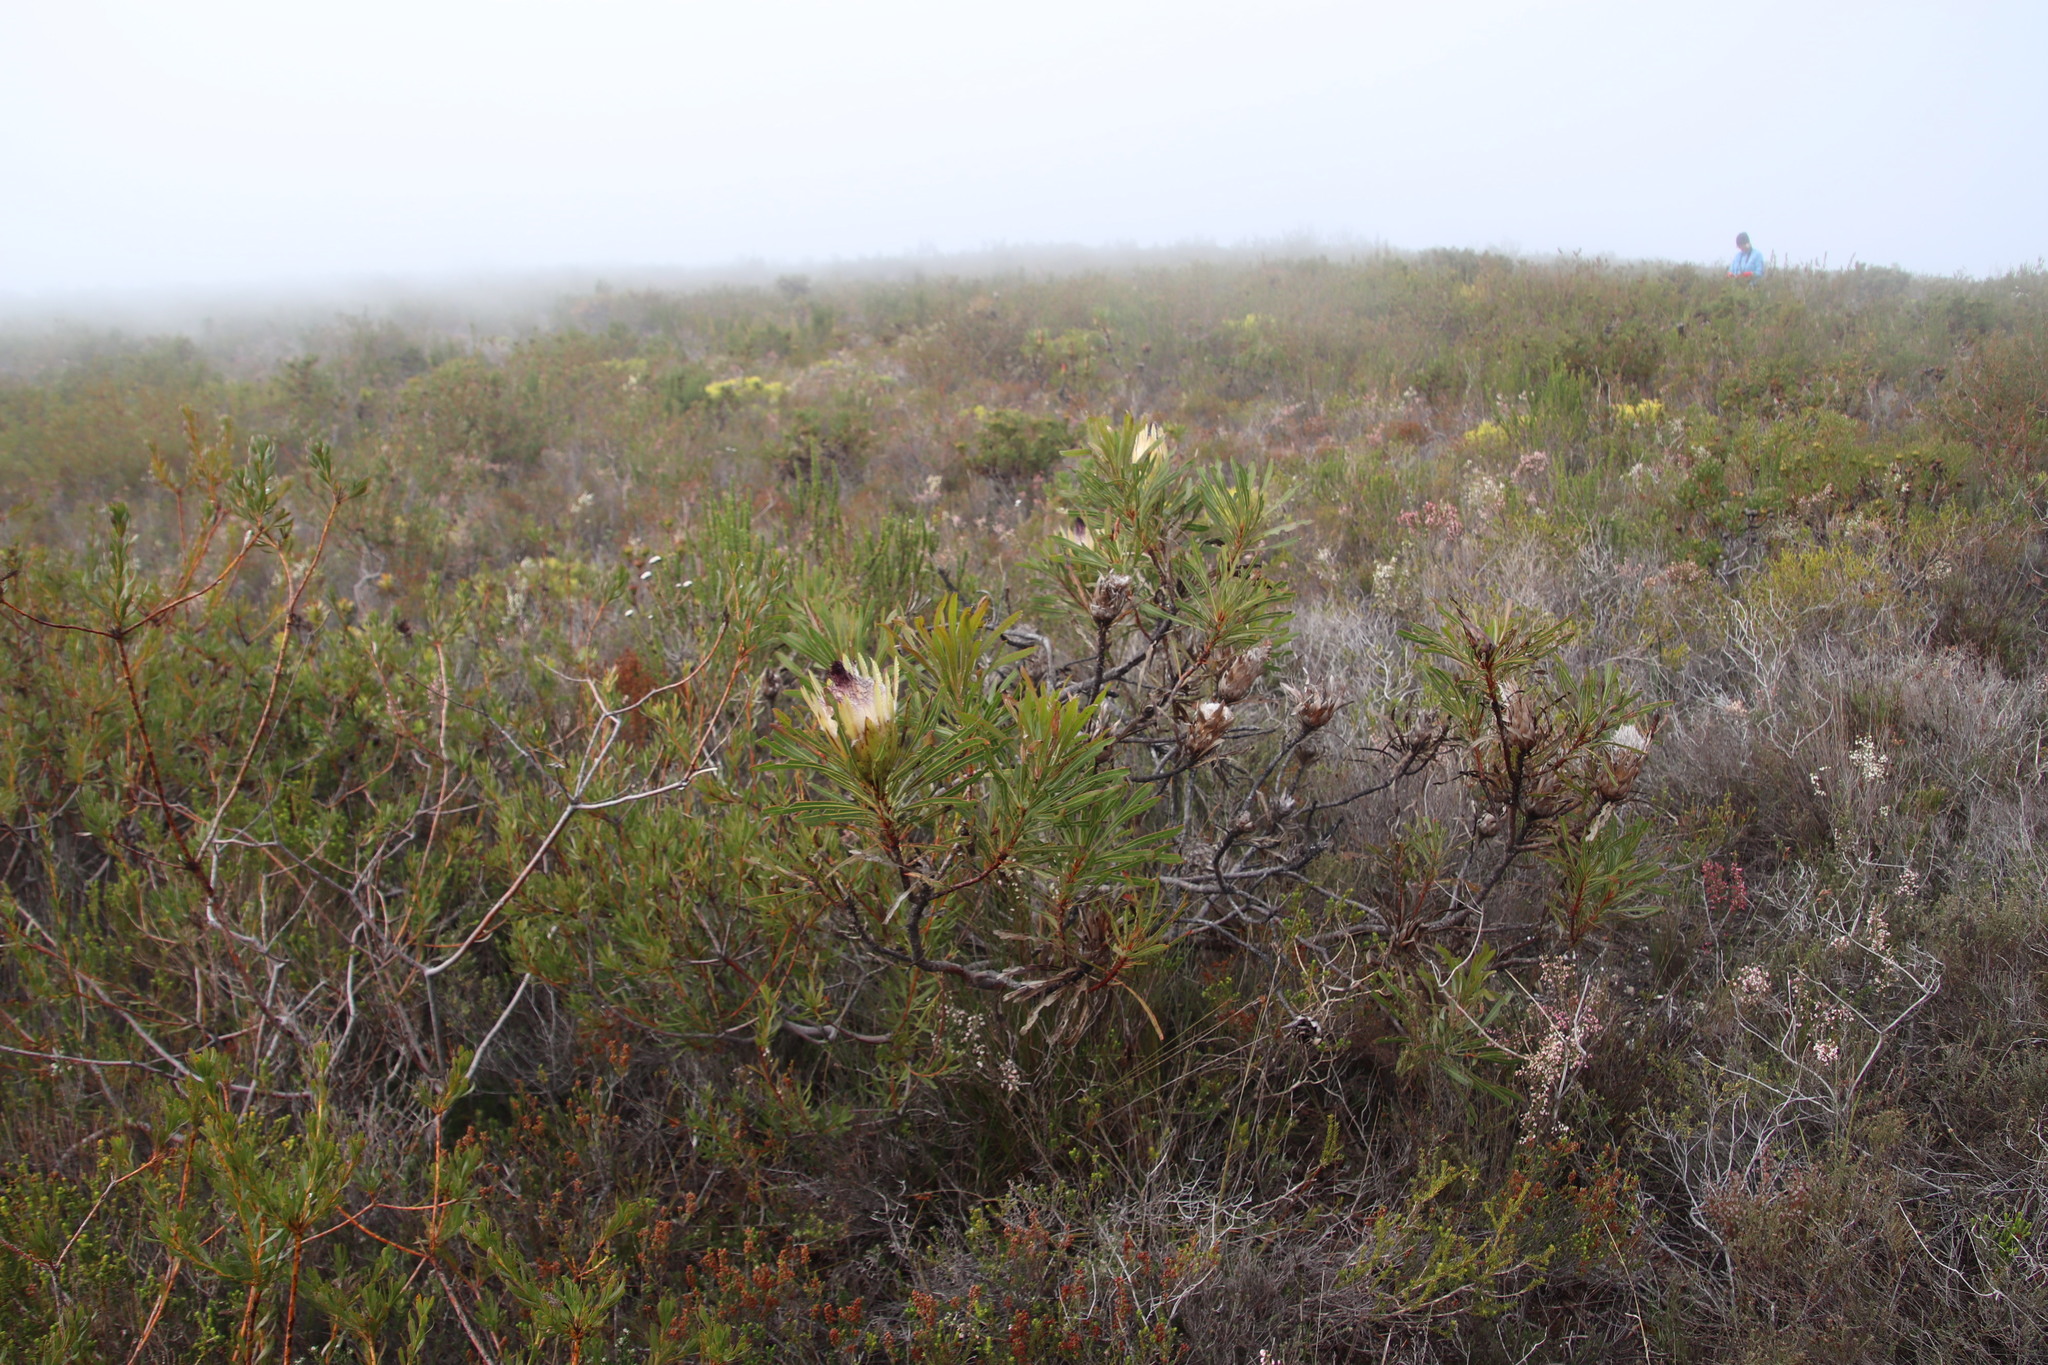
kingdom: Plantae
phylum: Tracheophyta
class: Magnoliopsida
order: Proteales
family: Proteaceae
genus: Protea
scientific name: Protea longifolia
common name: Long-leaf sugarbush
